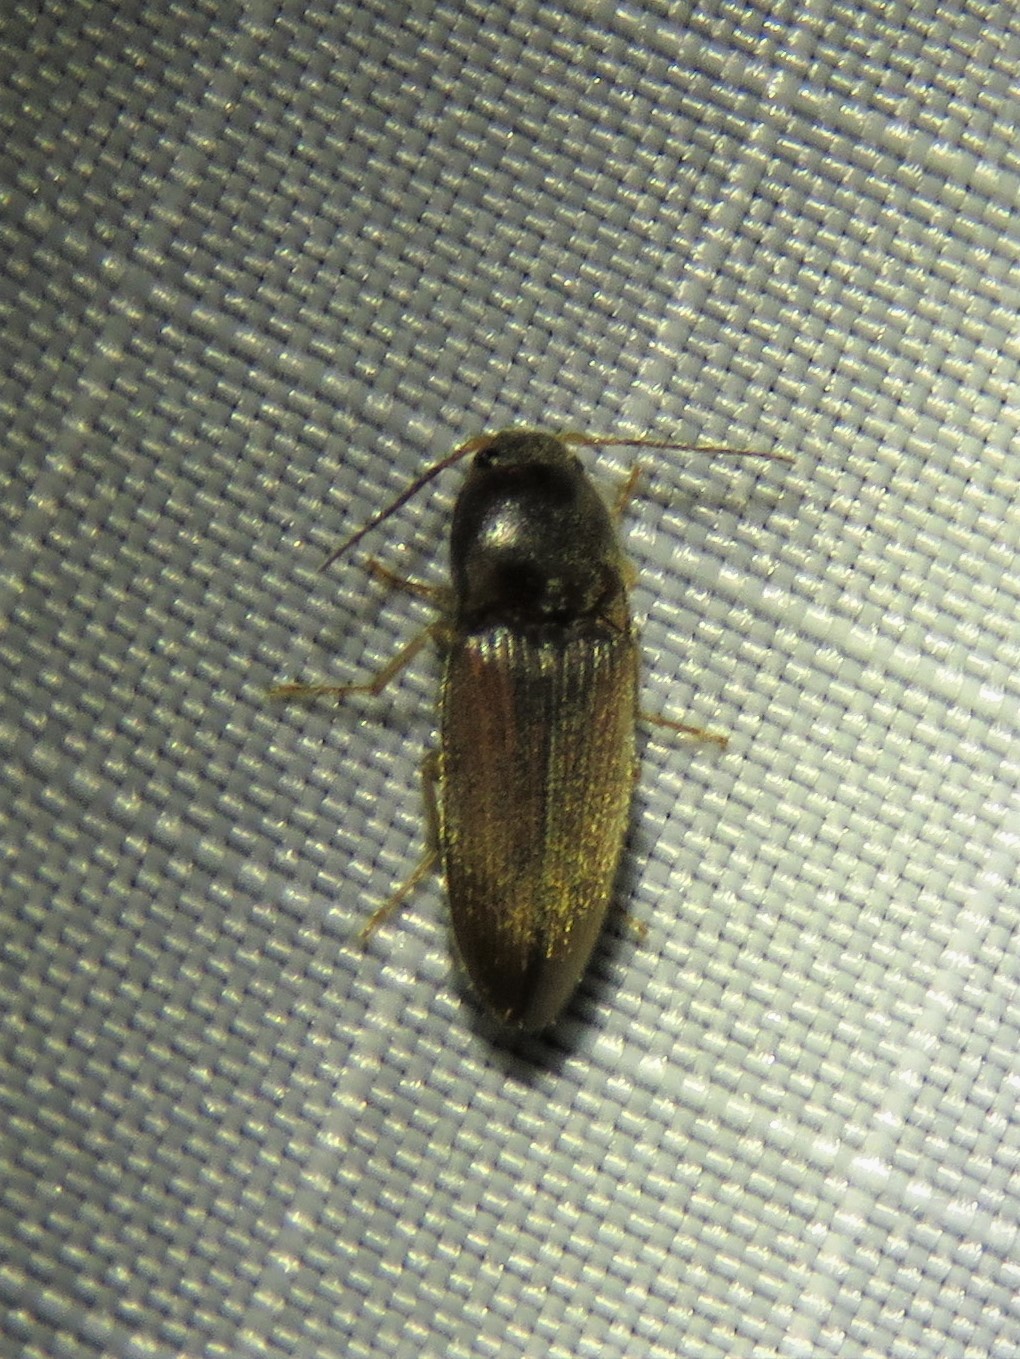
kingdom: Animalia
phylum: Arthropoda
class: Insecta
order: Coleoptera
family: Elateridae
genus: Monocrepidius
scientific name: Monocrepidius
